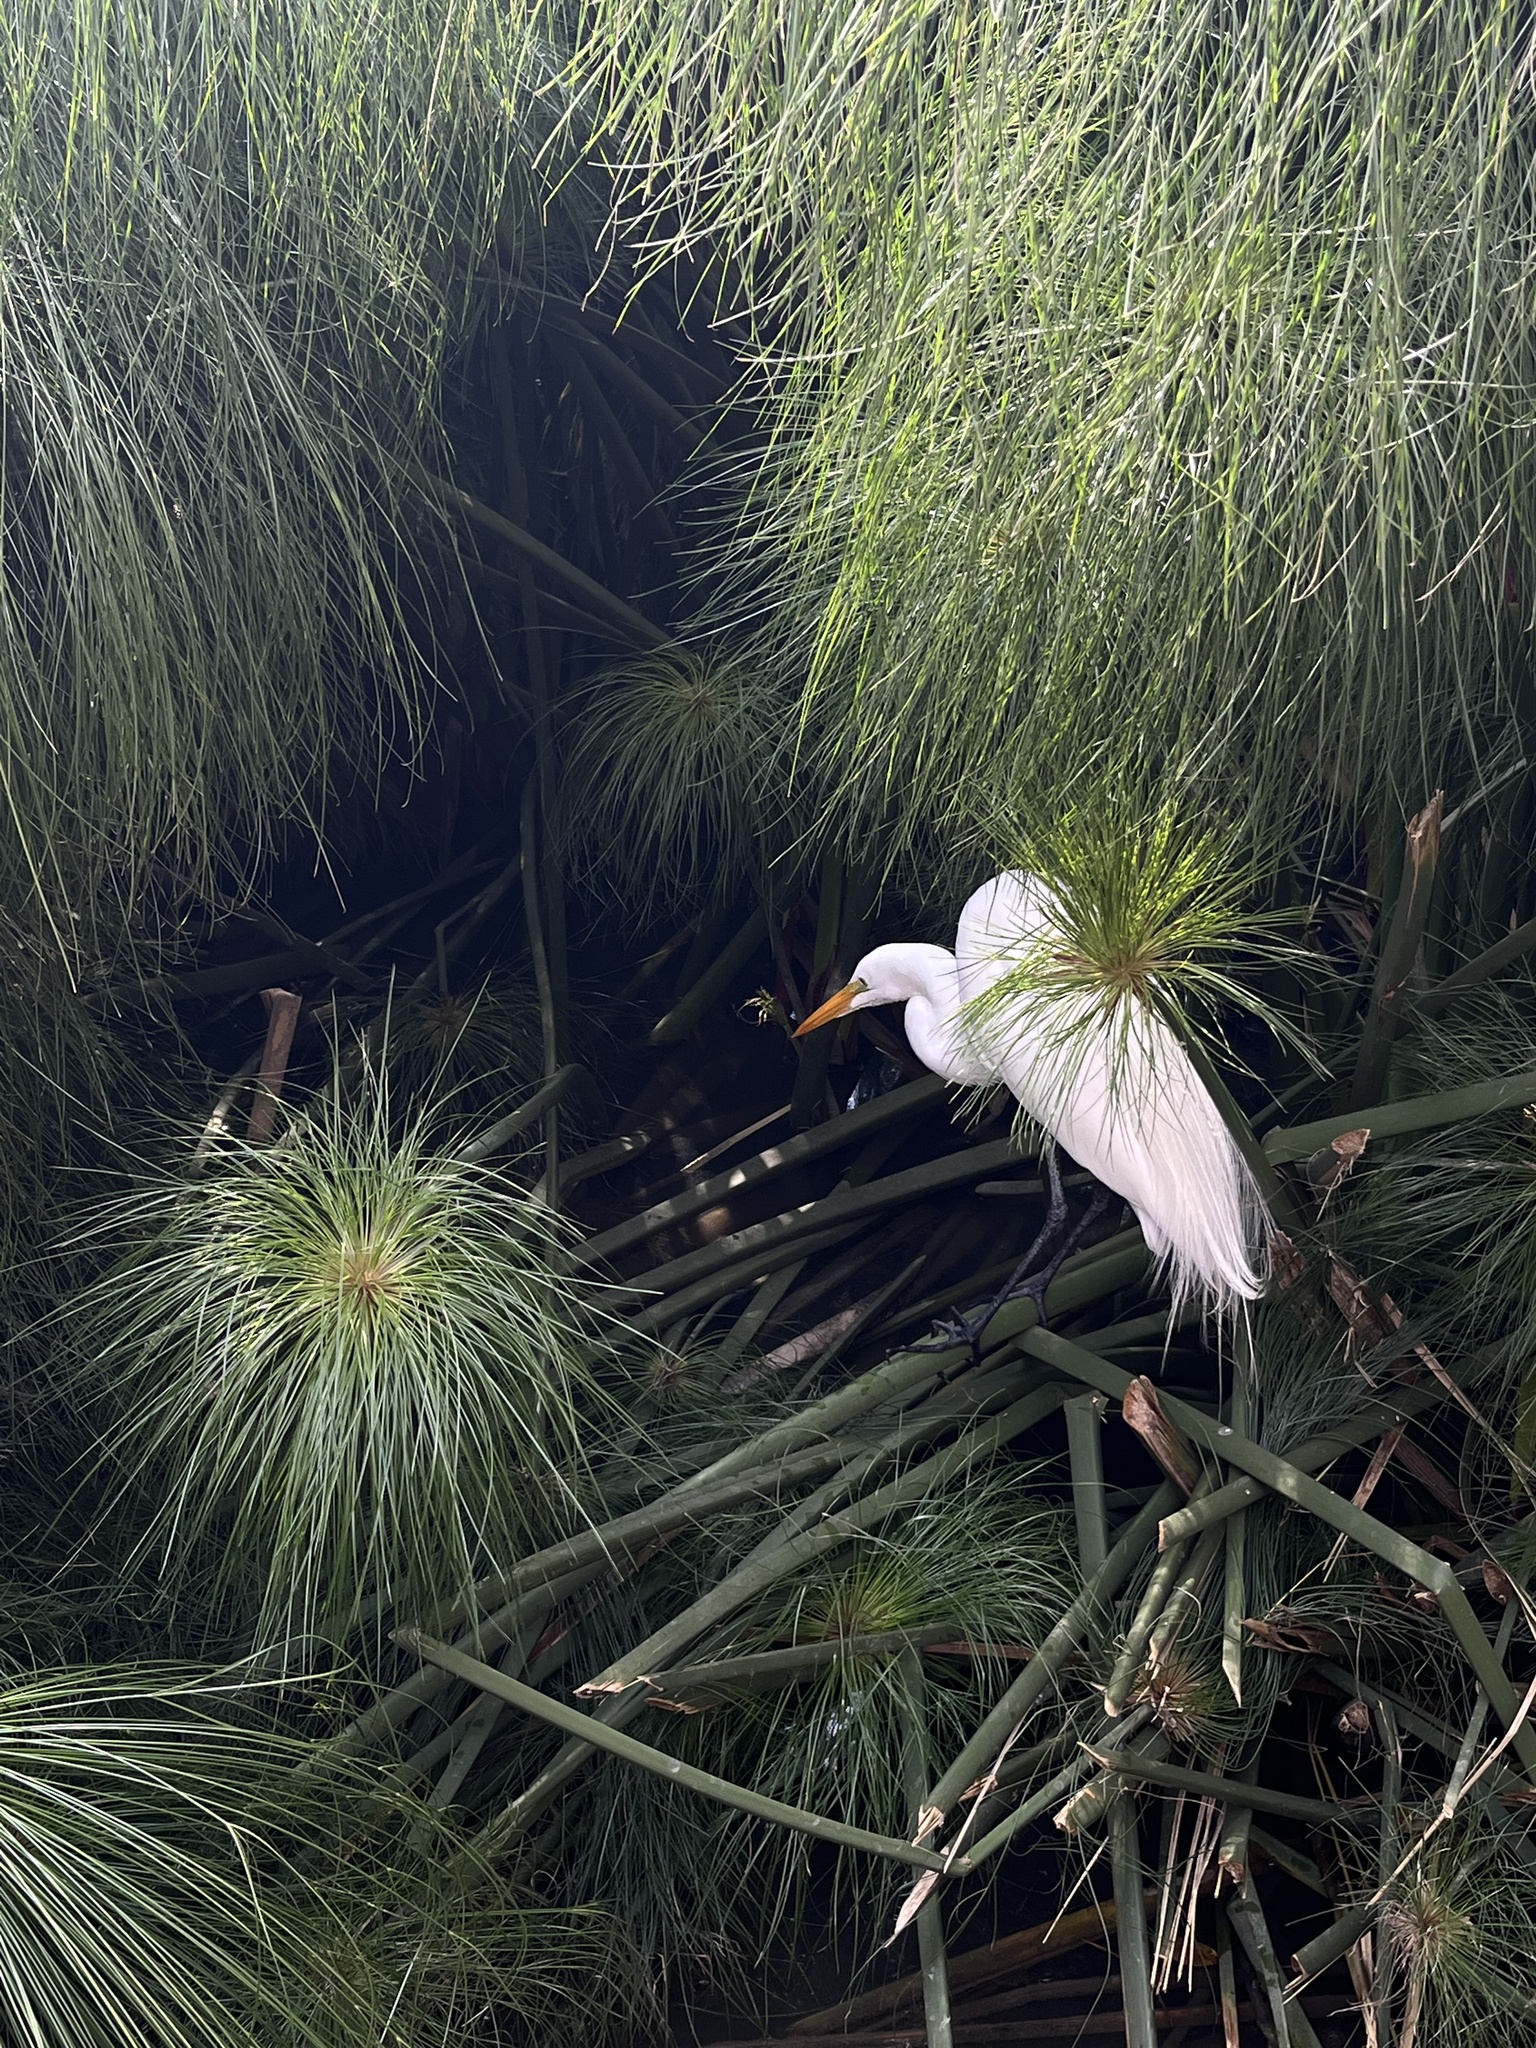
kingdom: Animalia
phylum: Chordata
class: Aves
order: Pelecaniformes
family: Ardeidae
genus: Ardea
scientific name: Ardea alba
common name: Great egret
